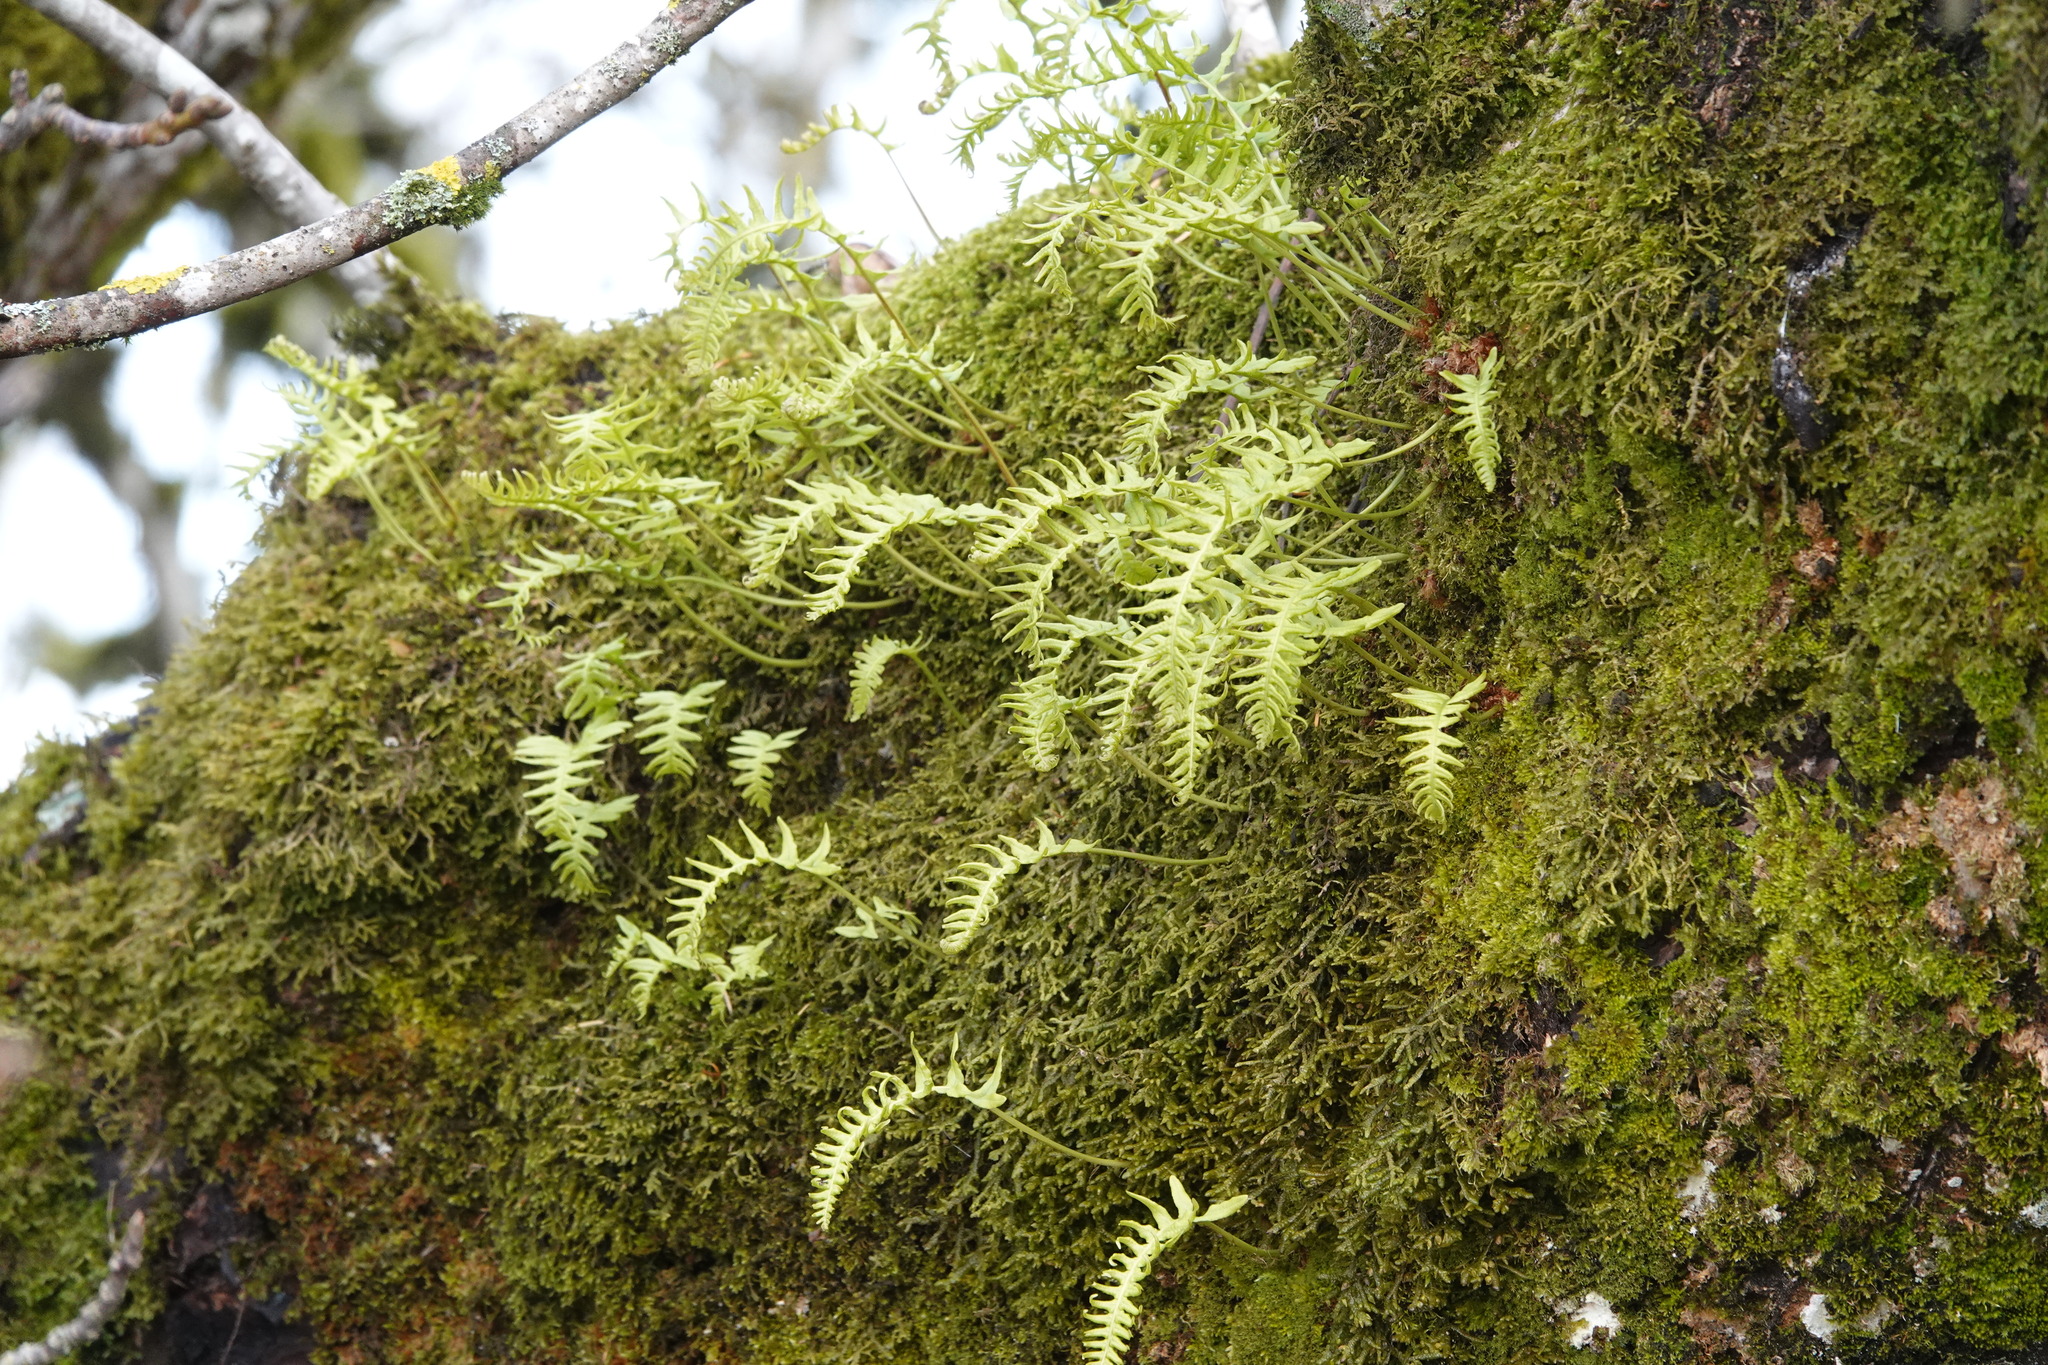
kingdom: Plantae
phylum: Tracheophyta
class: Polypodiopsida
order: Polypodiales
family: Polypodiaceae
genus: Polypodium
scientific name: Polypodium glycyrrhiza
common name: Licorice fern
